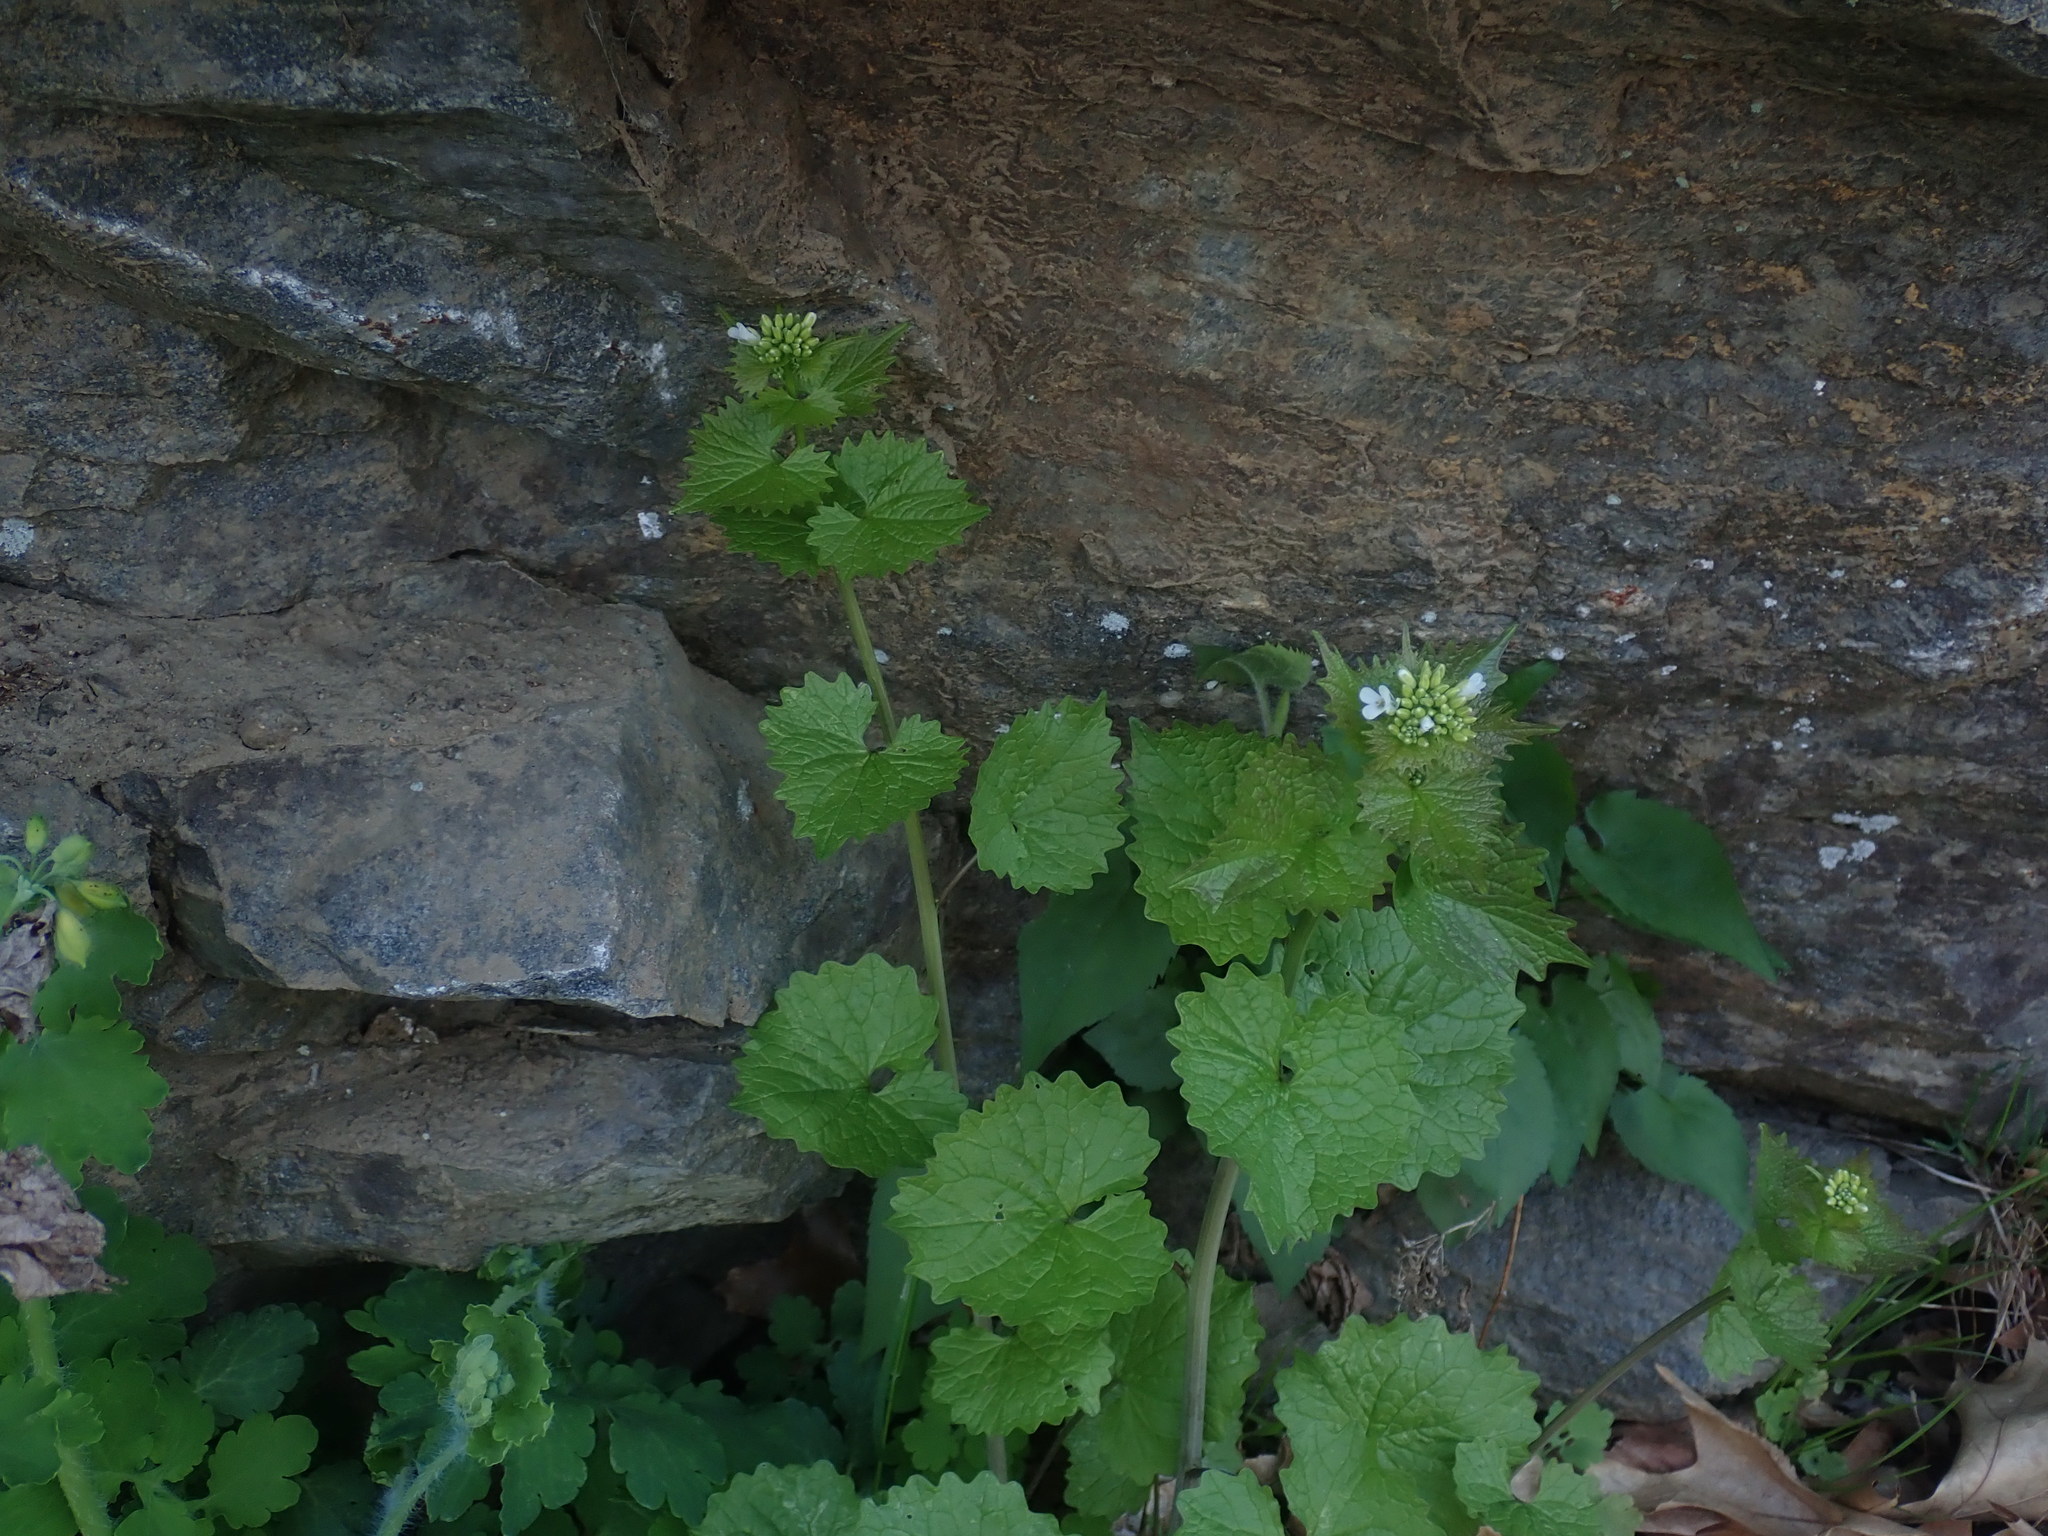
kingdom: Plantae
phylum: Tracheophyta
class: Magnoliopsida
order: Brassicales
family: Brassicaceae
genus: Alliaria
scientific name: Alliaria petiolata
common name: Garlic mustard
